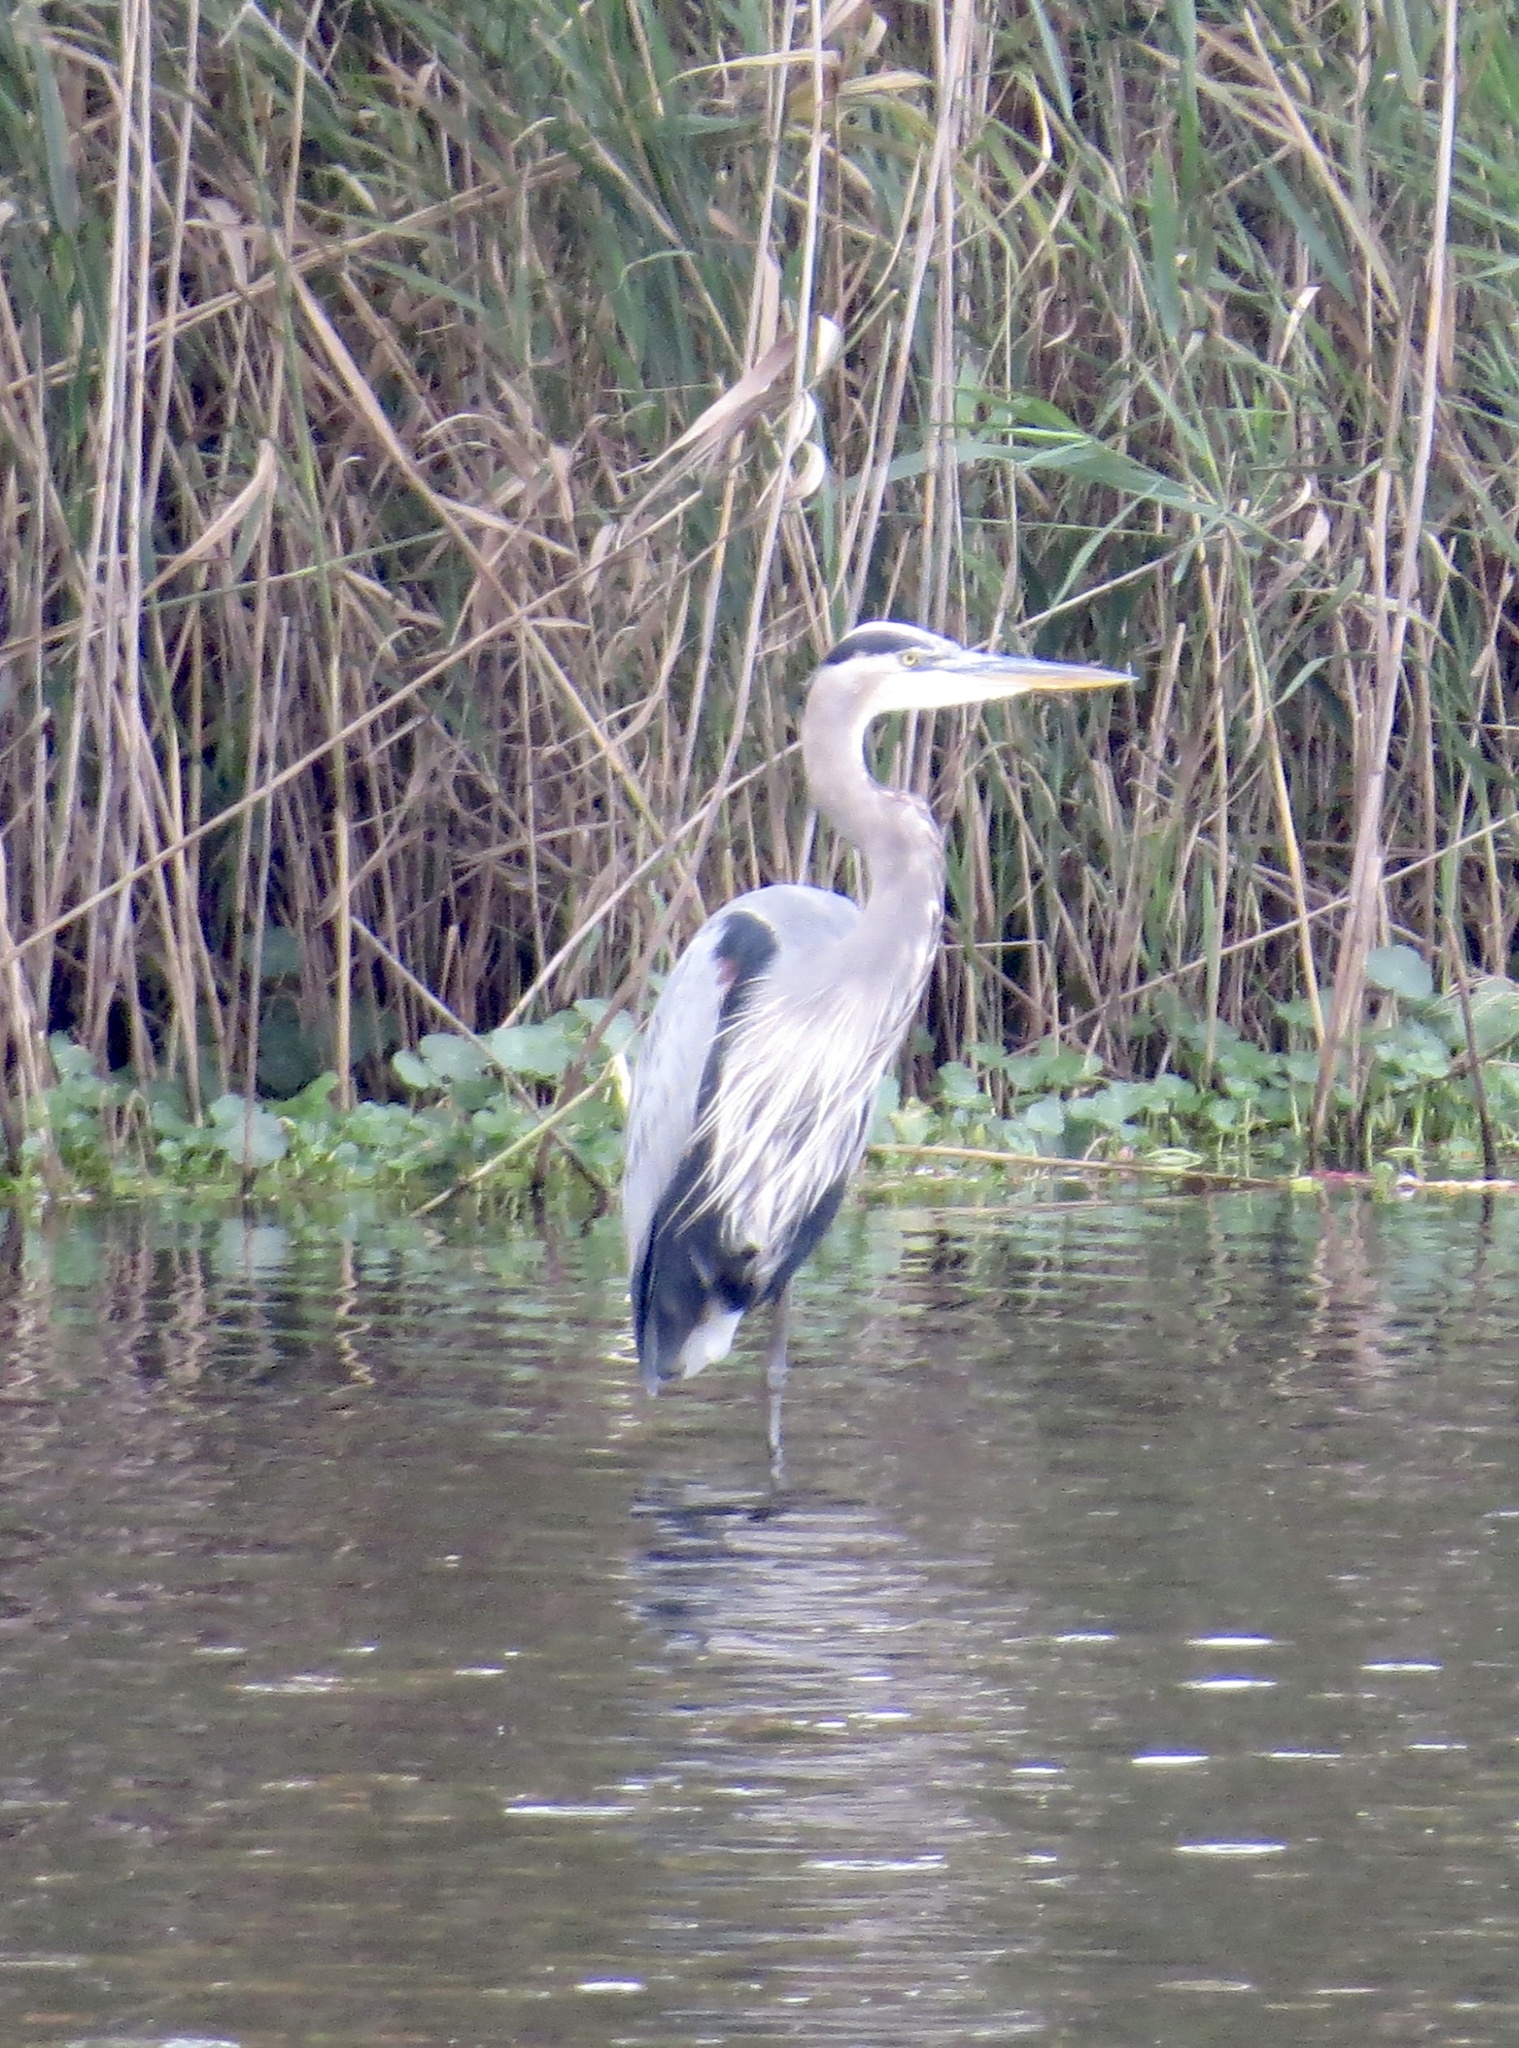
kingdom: Animalia
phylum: Chordata
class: Aves
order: Pelecaniformes
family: Ardeidae
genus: Ardea
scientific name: Ardea herodias
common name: Great blue heron
